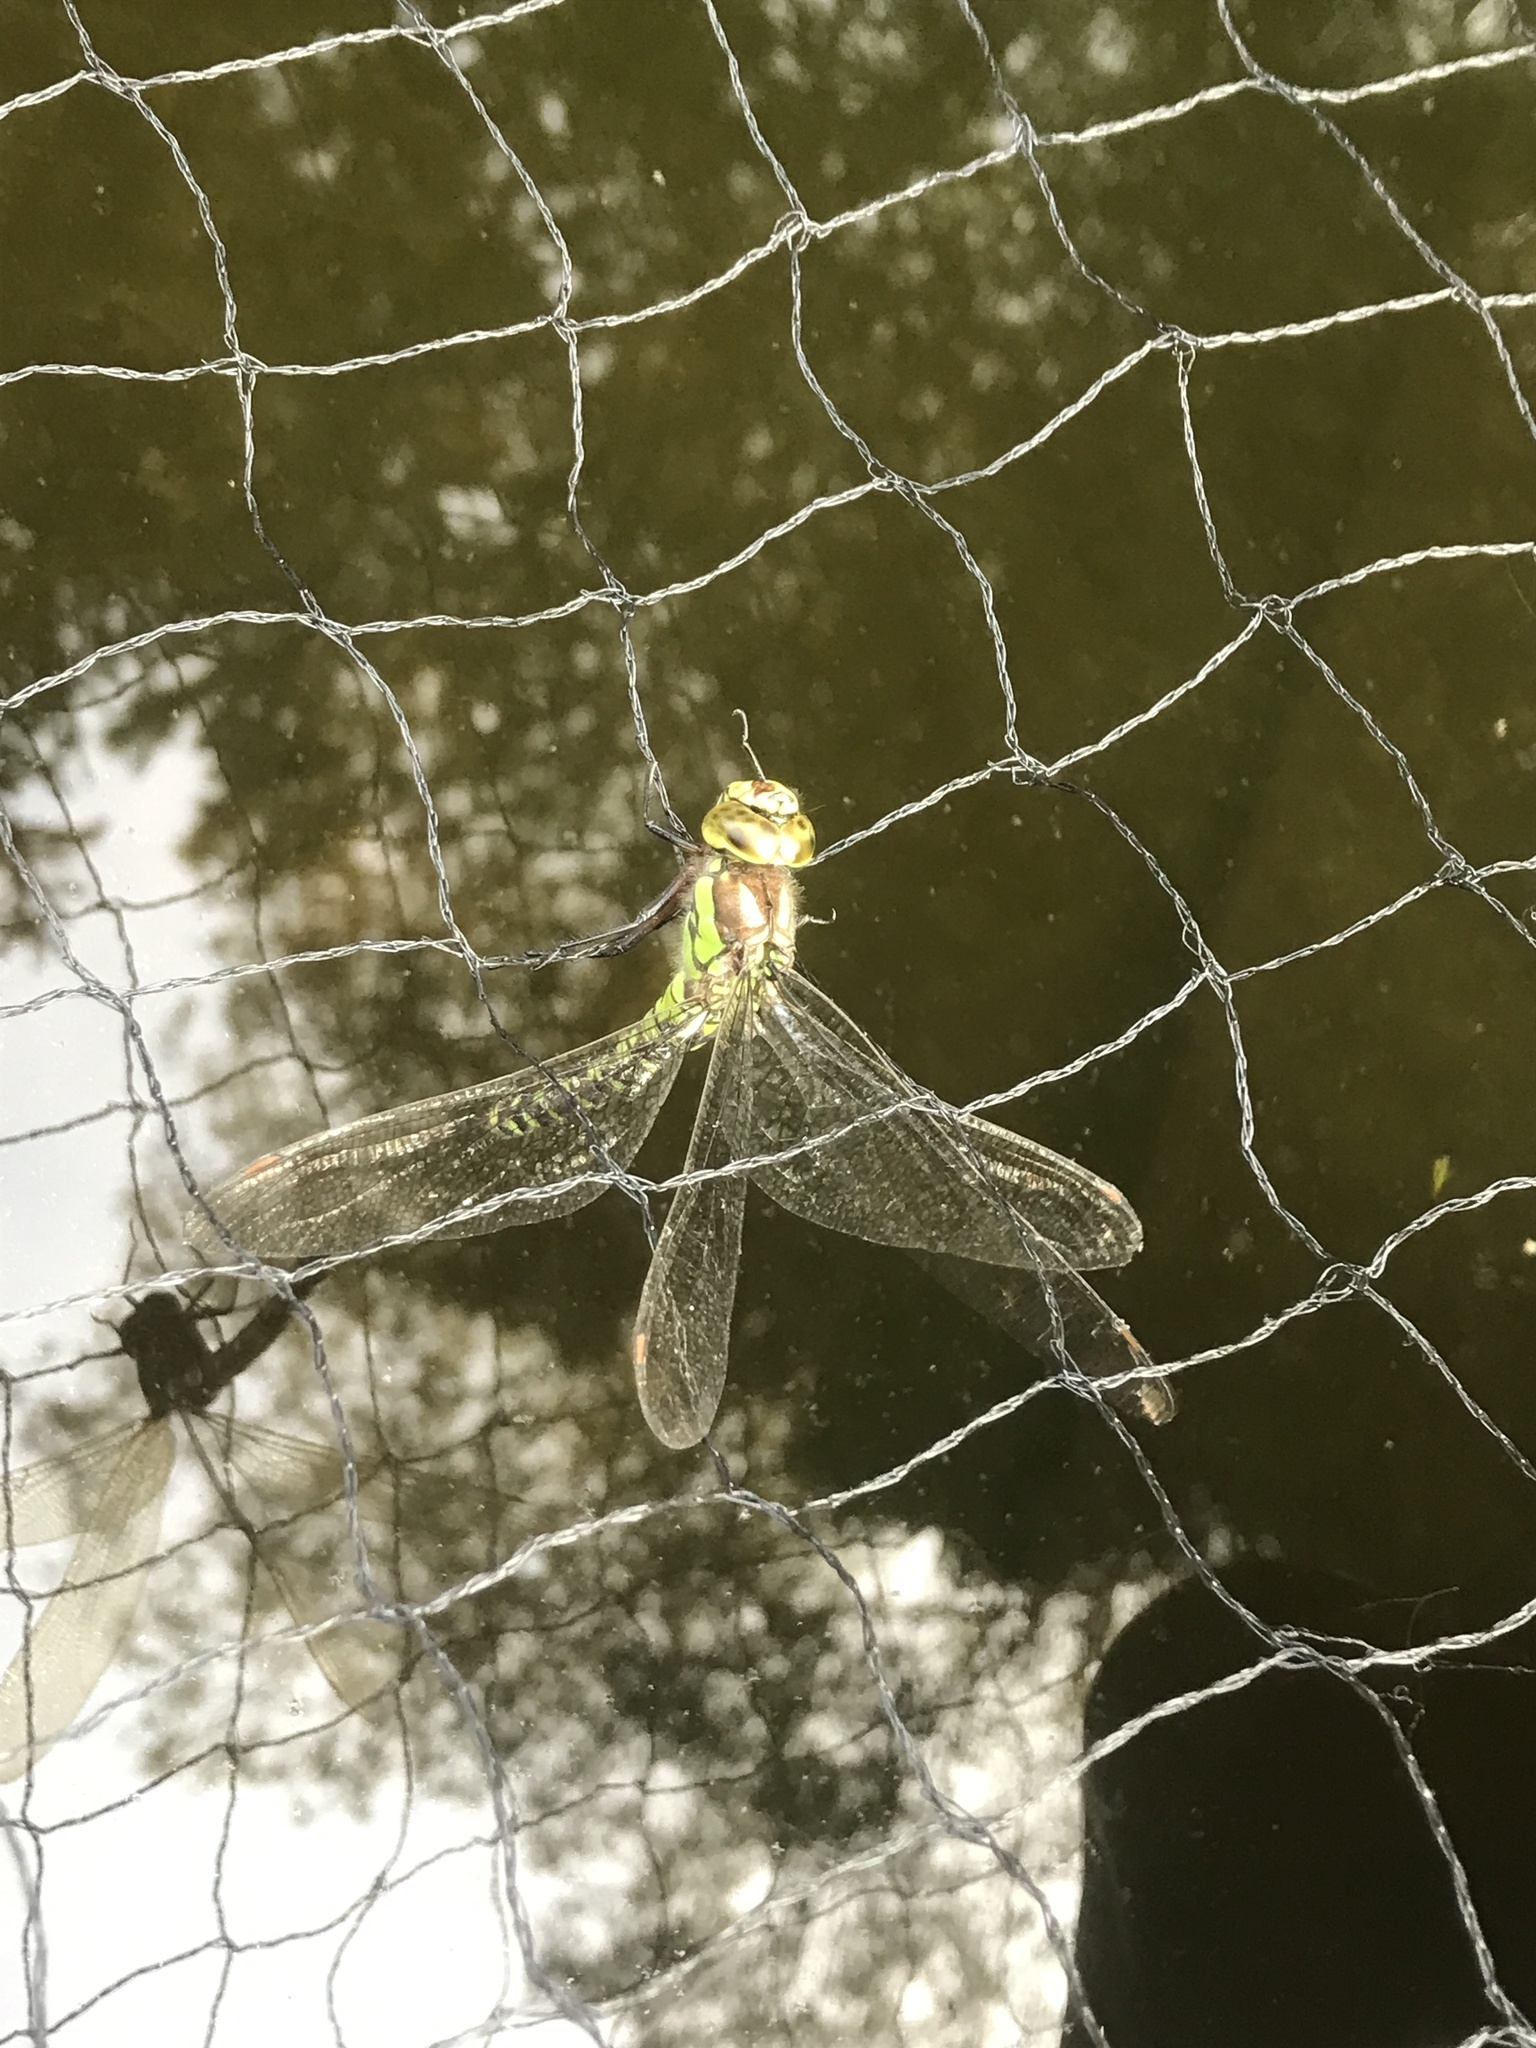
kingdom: Animalia
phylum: Arthropoda
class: Insecta
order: Odonata
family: Aeshnidae
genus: Aeshna
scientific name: Aeshna cyanea
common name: Southern hawker
